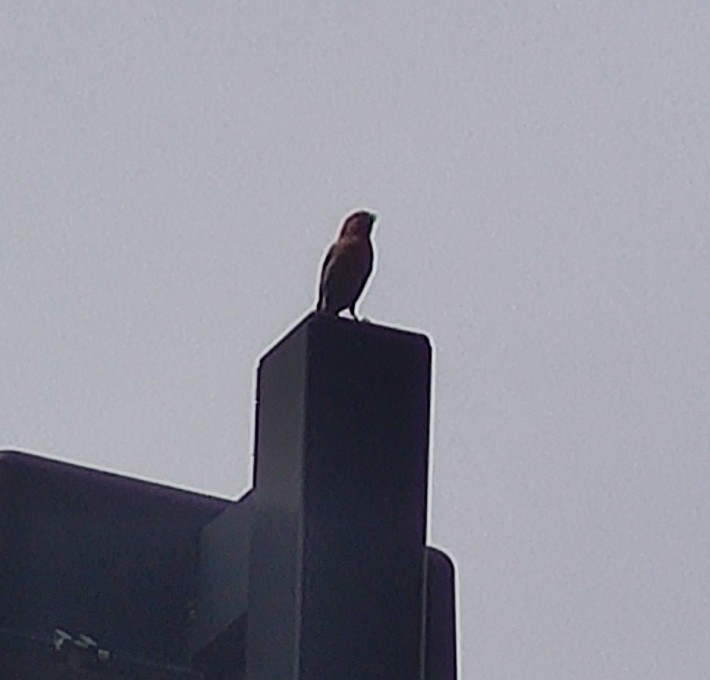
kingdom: Animalia
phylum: Chordata
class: Aves
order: Passeriformes
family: Fringillidae
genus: Haemorhous
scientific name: Haemorhous mexicanus
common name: House finch
